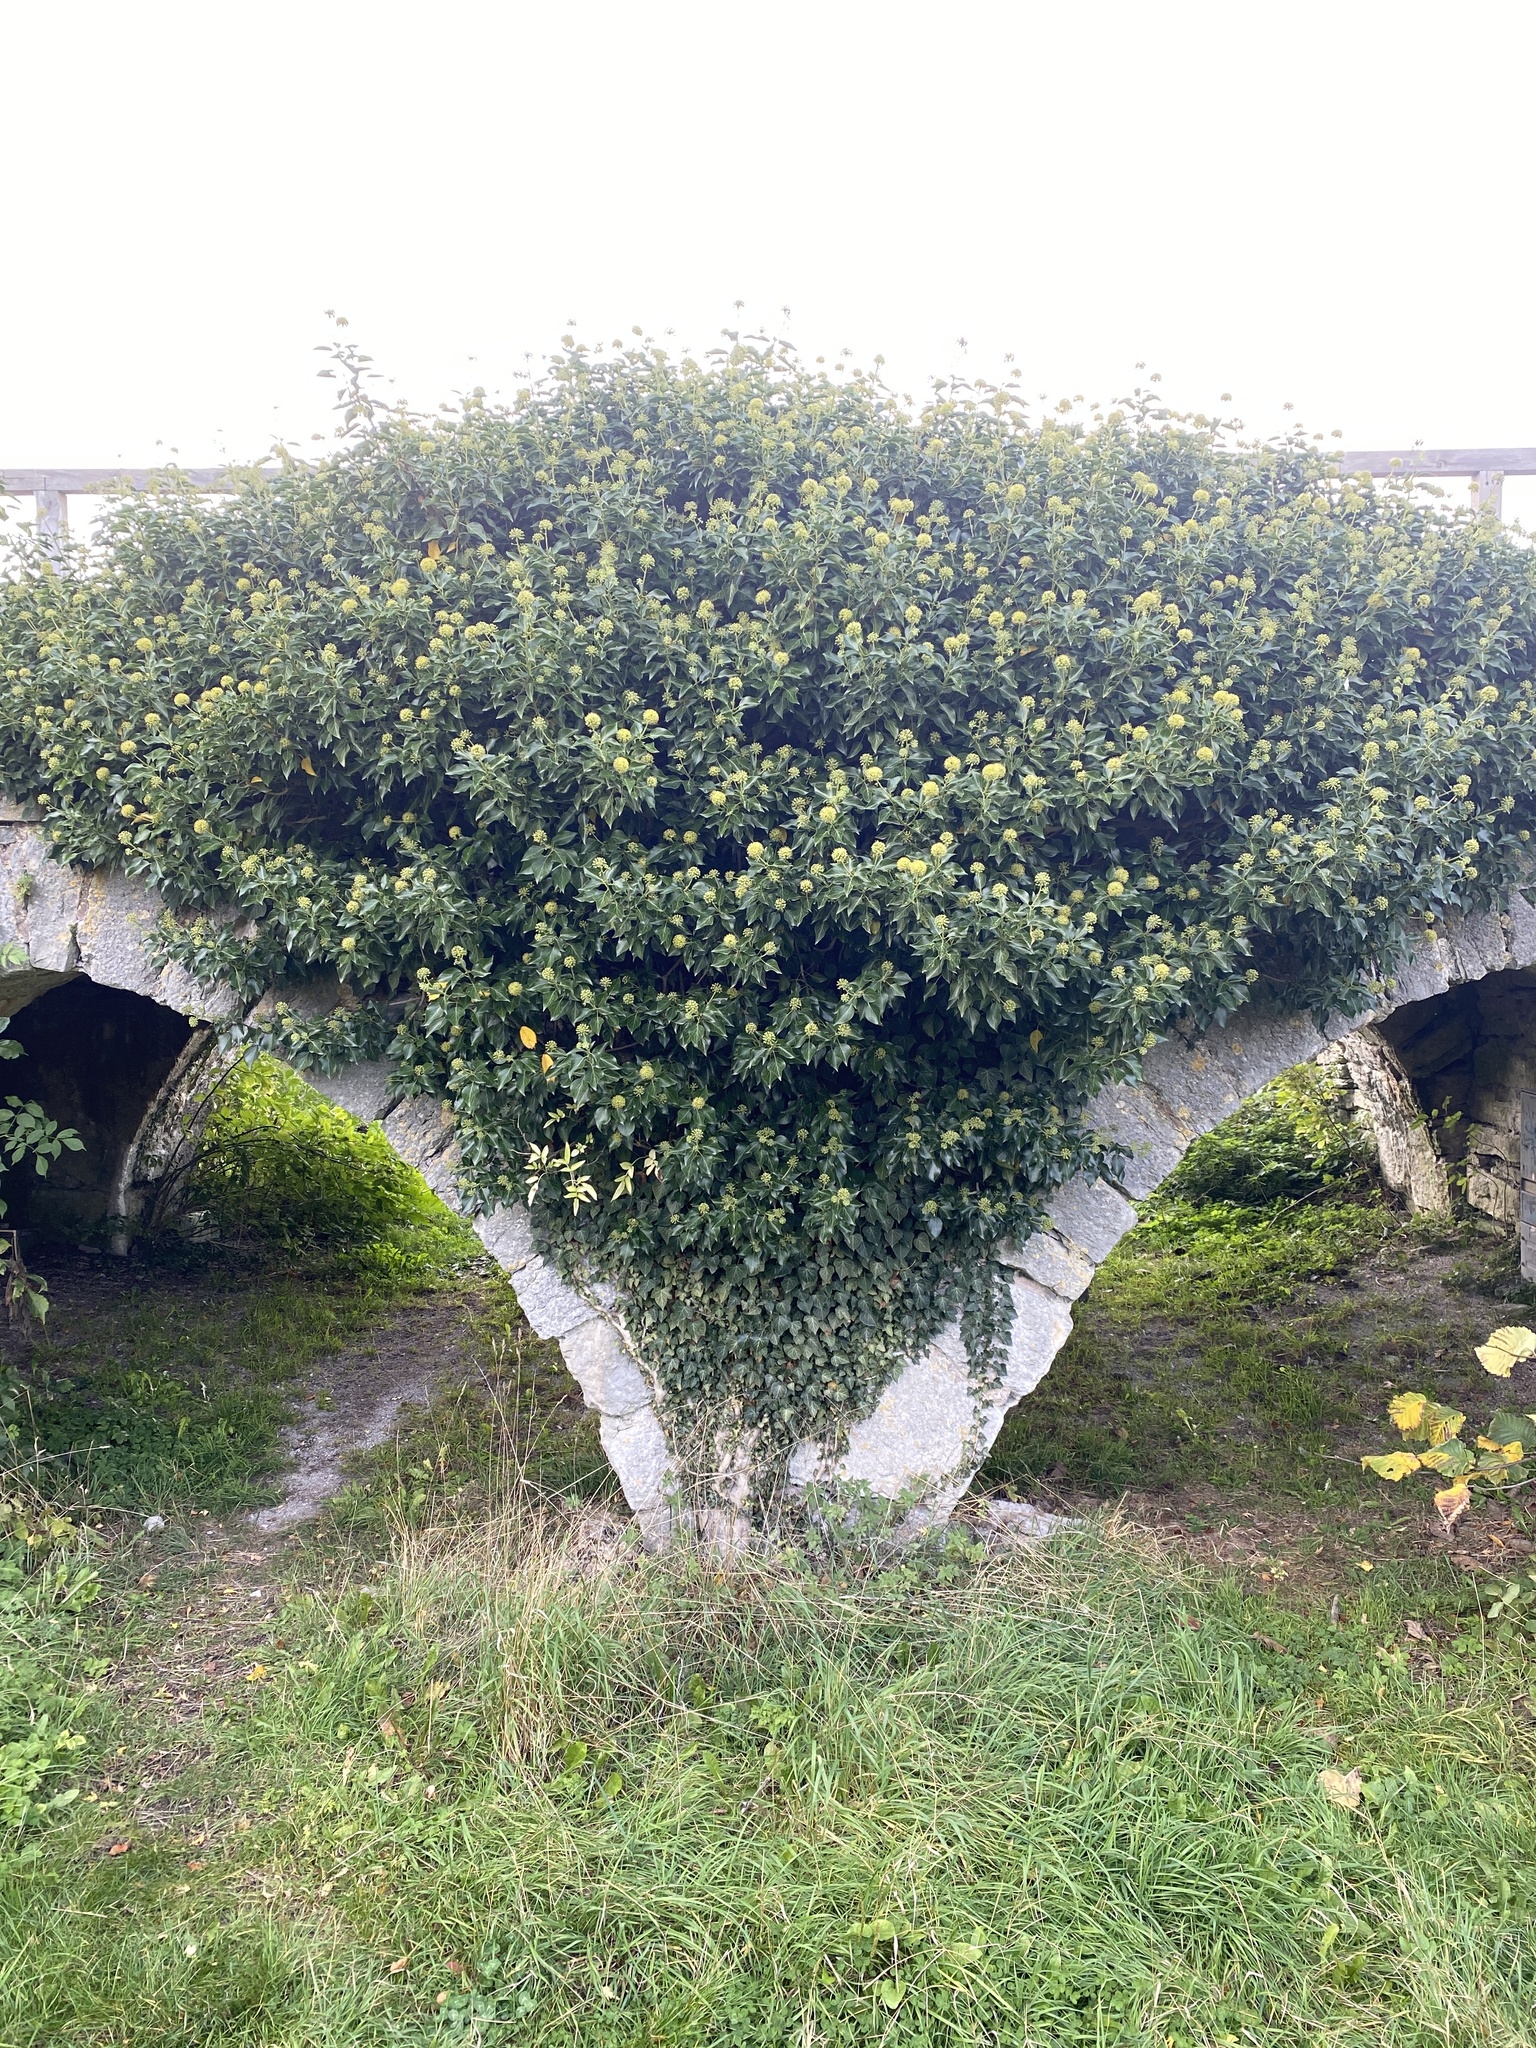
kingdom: Plantae
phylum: Tracheophyta
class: Magnoliopsida
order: Apiales
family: Araliaceae
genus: Hedera
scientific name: Hedera helix
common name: Ivy
